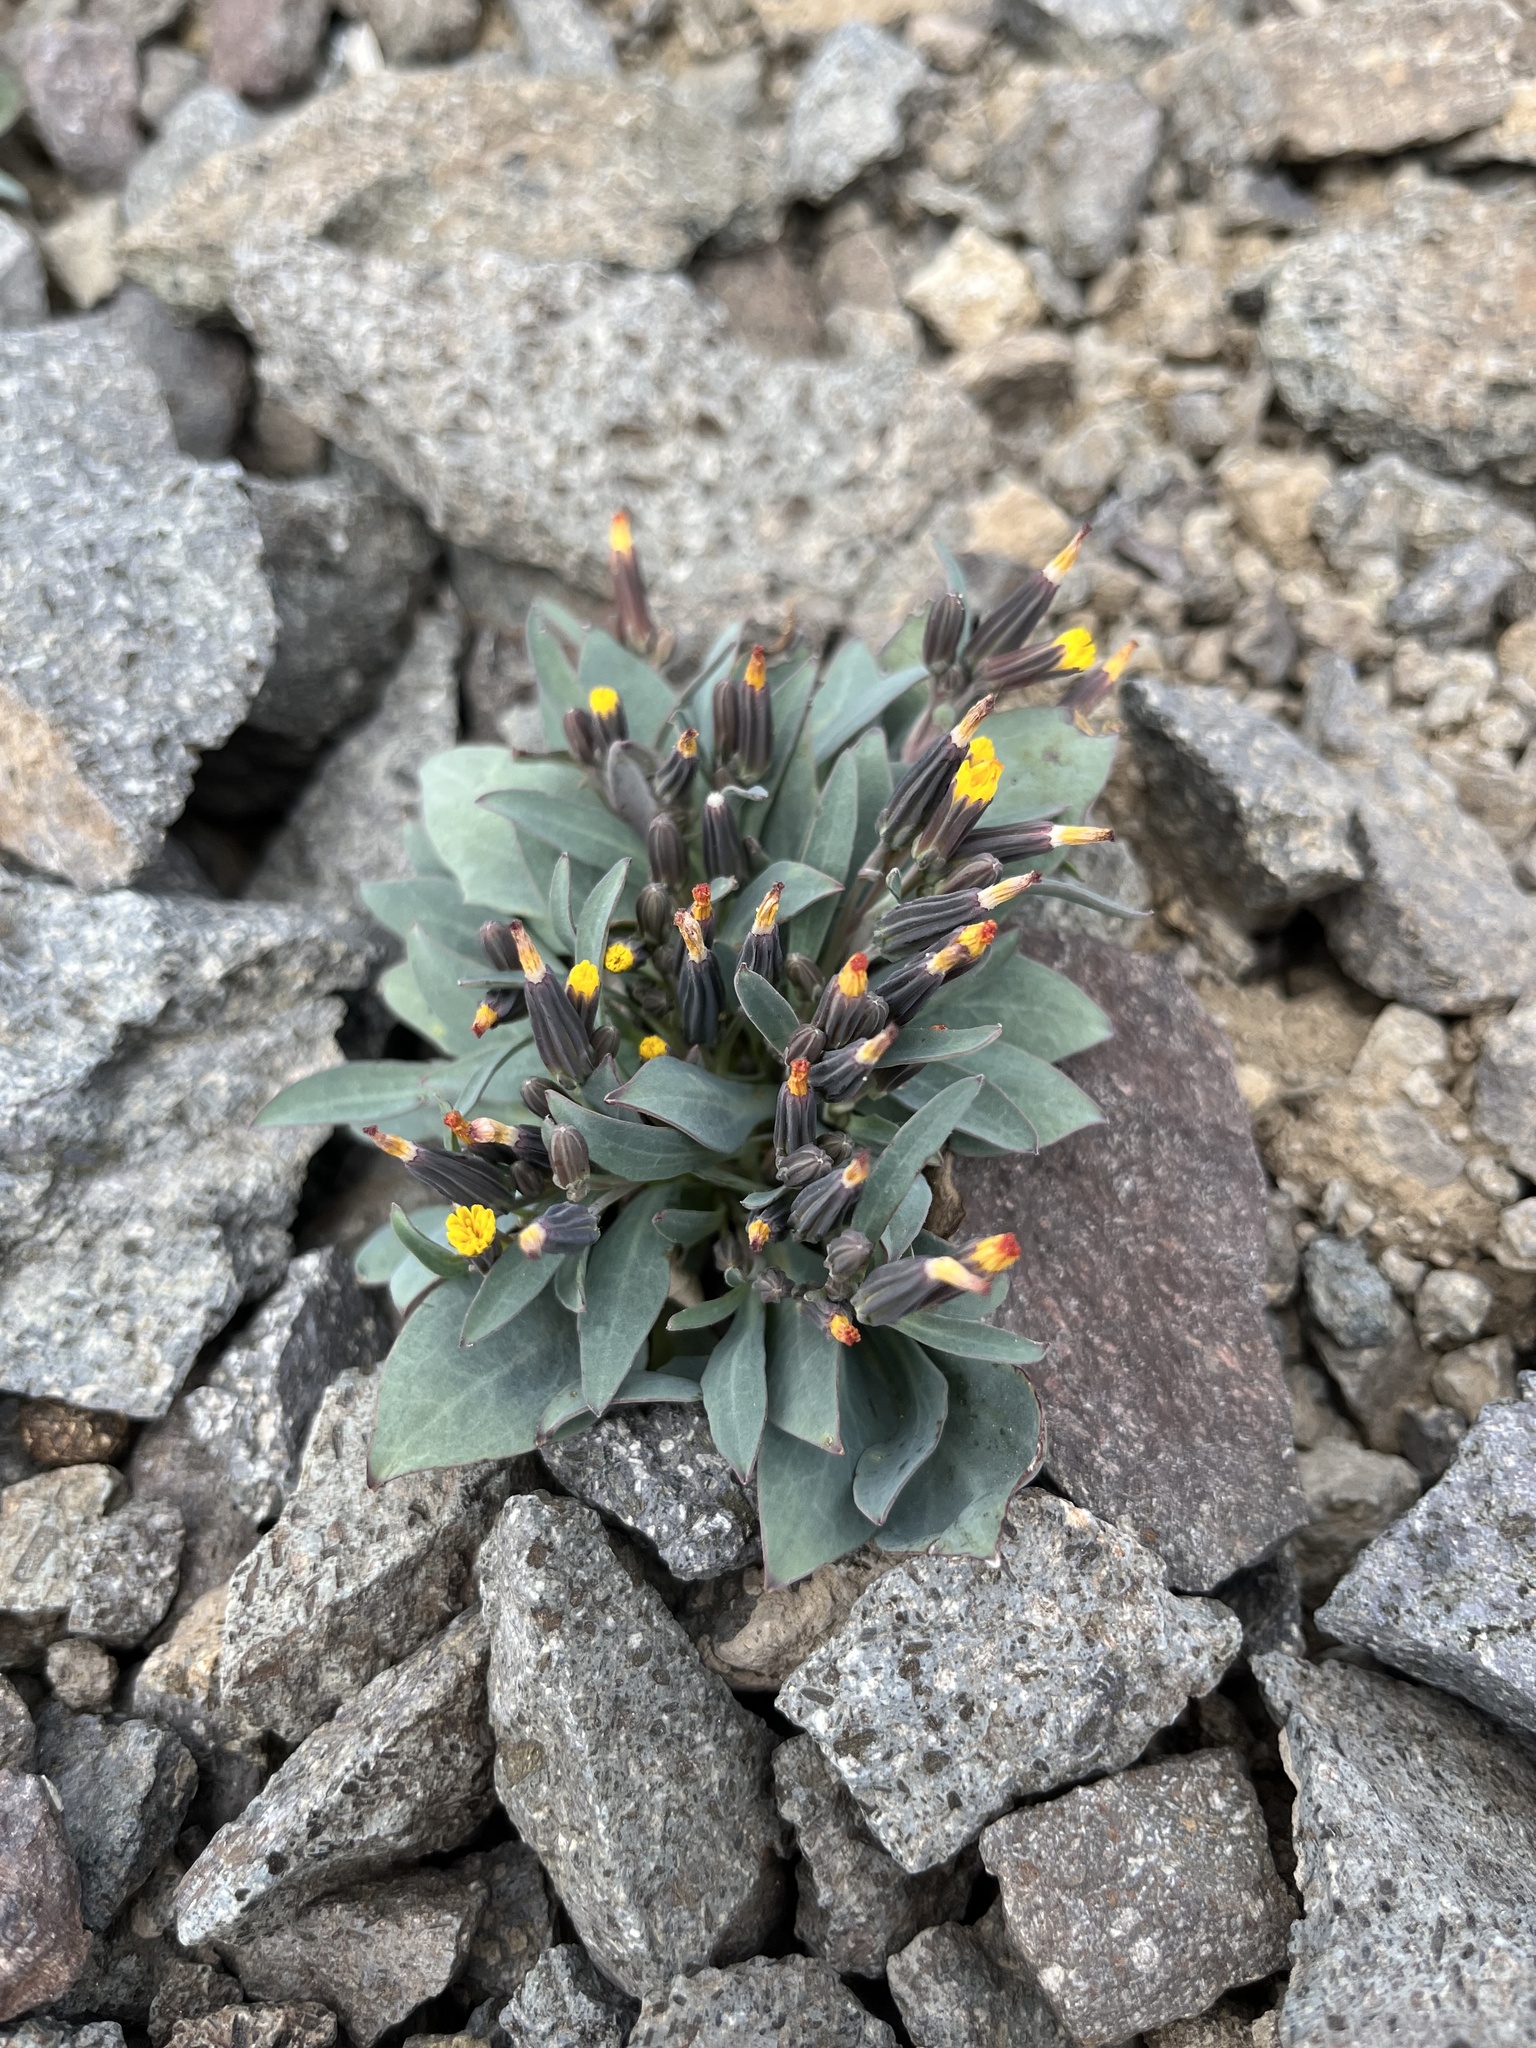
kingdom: Plantae
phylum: Tracheophyta
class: Magnoliopsida
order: Asterales
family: Asteraceae
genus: Askellia
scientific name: Askellia pygmaea
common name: Dwarf alpine hawksbeard
